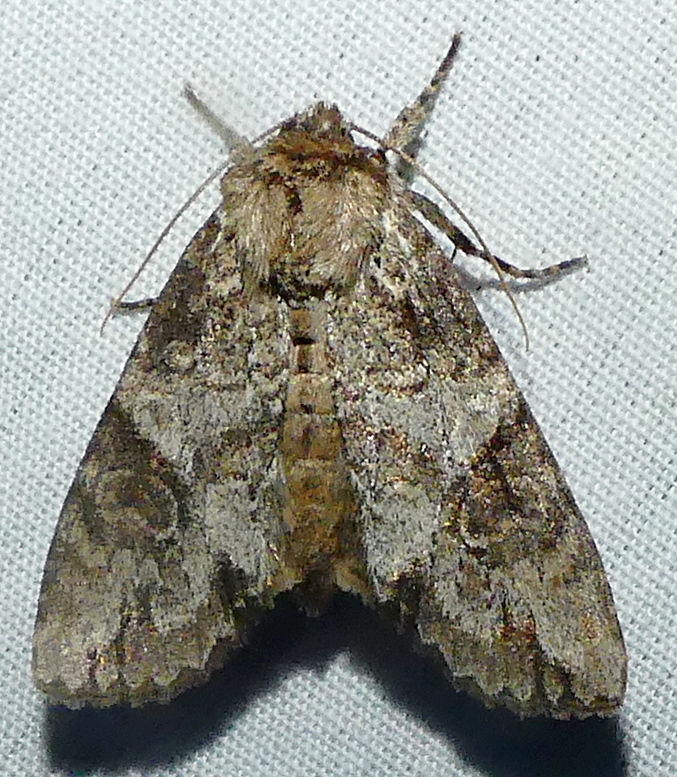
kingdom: Animalia
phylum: Arthropoda
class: Insecta
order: Lepidoptera
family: Noctuidae
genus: Achatia
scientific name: Achatia latex
